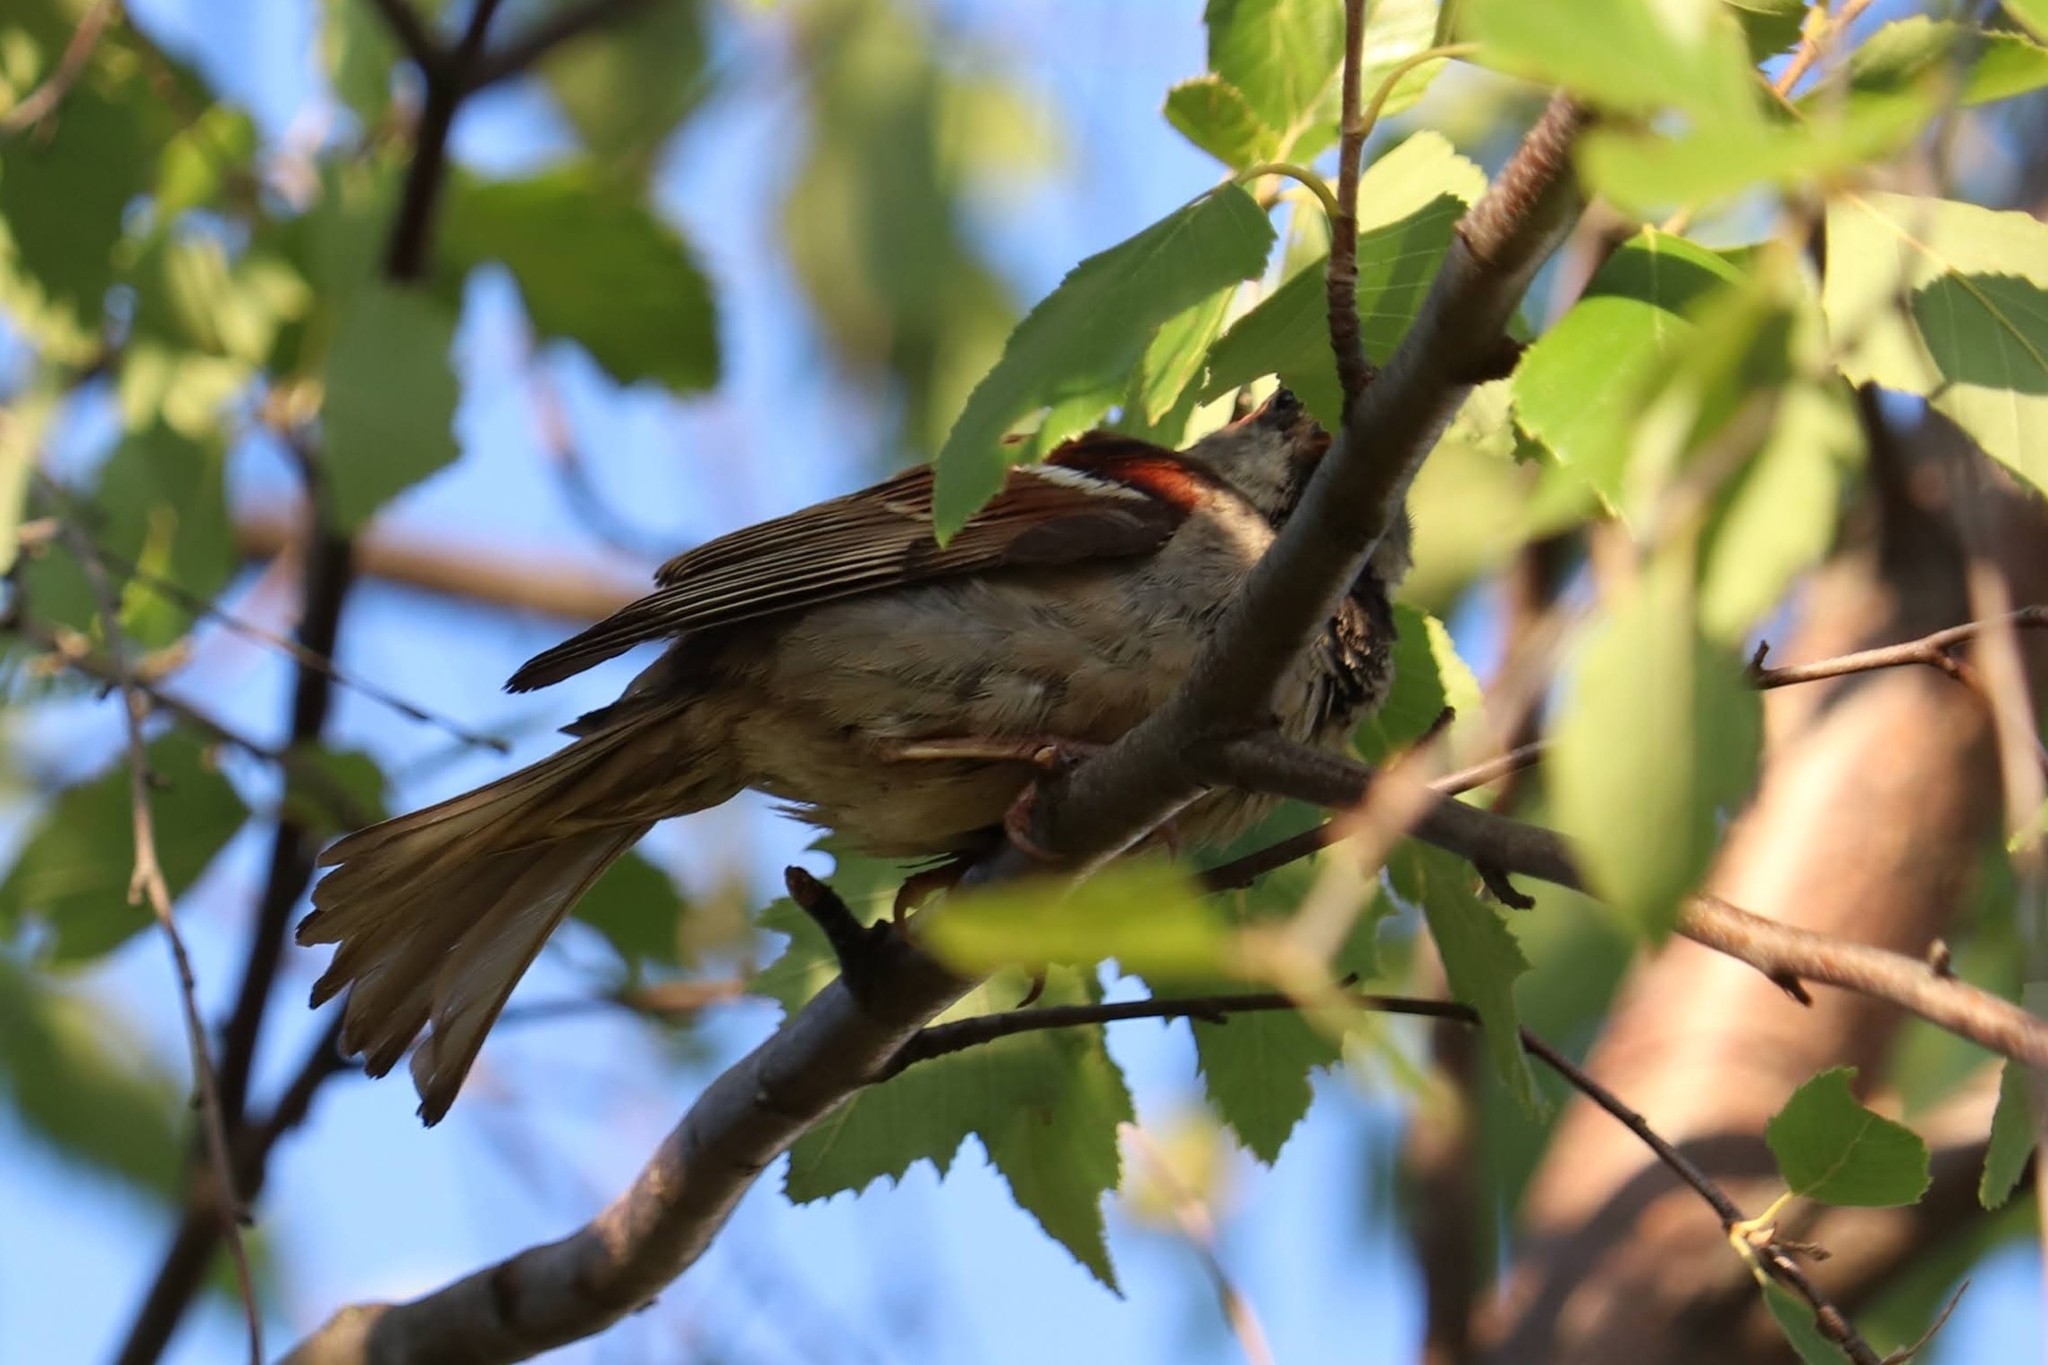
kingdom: Animalia
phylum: Chordata
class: Aves
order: Passeriformes
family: Passeridae
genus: Passer
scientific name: Passer domesticus
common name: House sparrow
